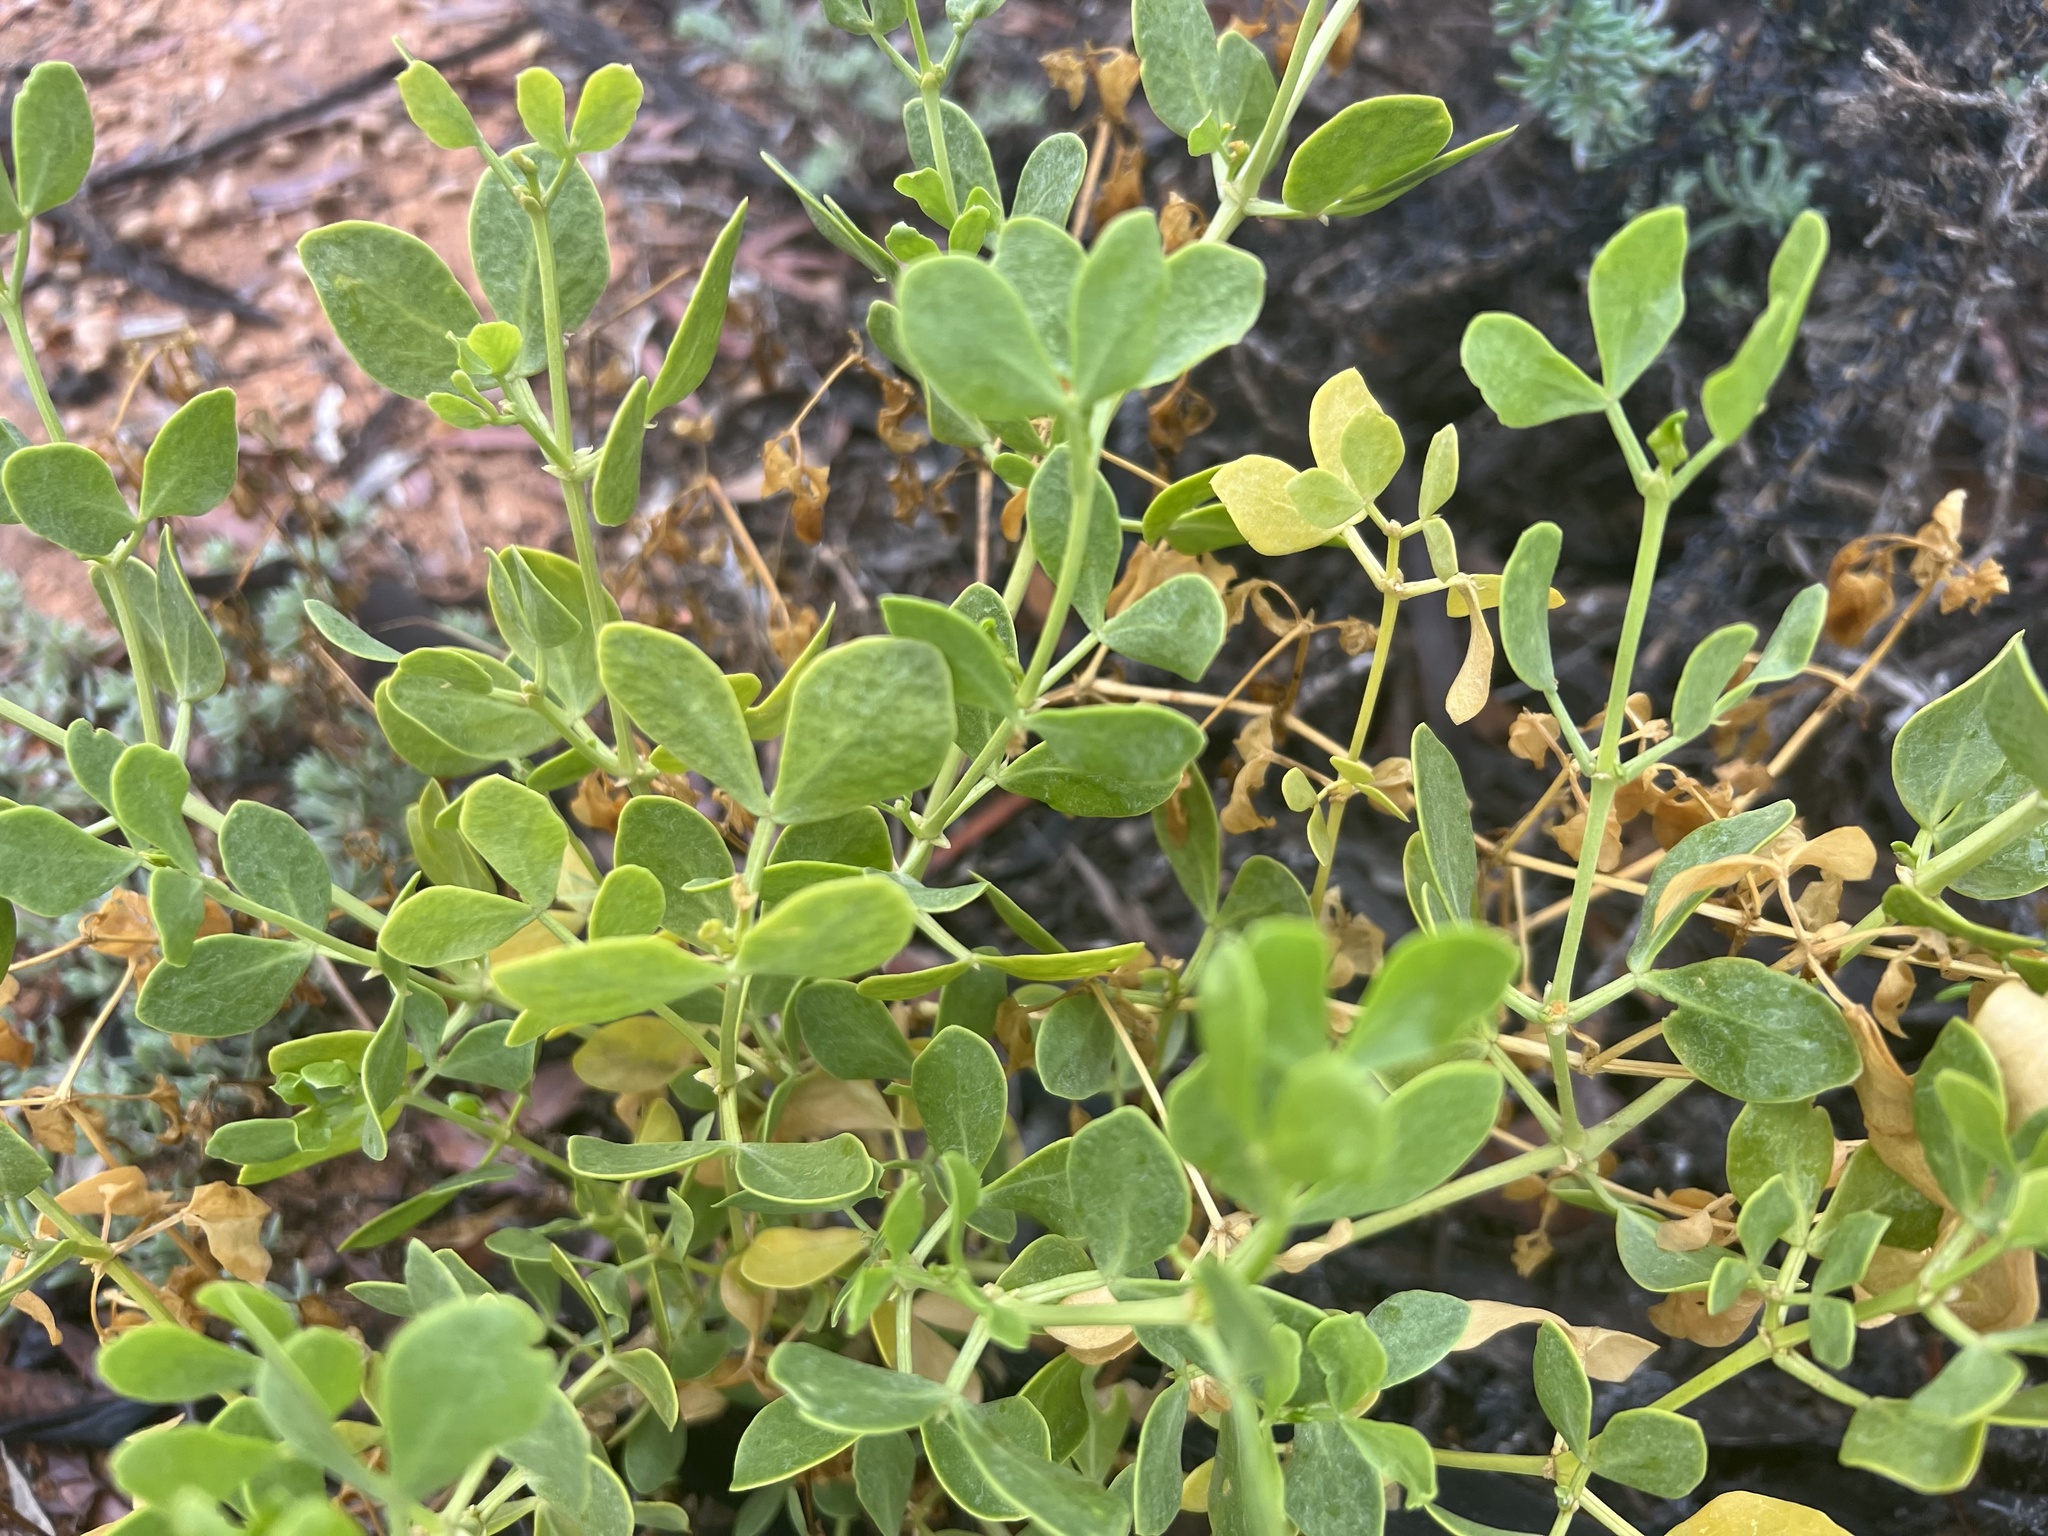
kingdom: Plantae
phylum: Tracheophyta
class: Magnoliopsida
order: Zygophyllales
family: Zygophyllaceae
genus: Roepera
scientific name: Roepera apiculata
